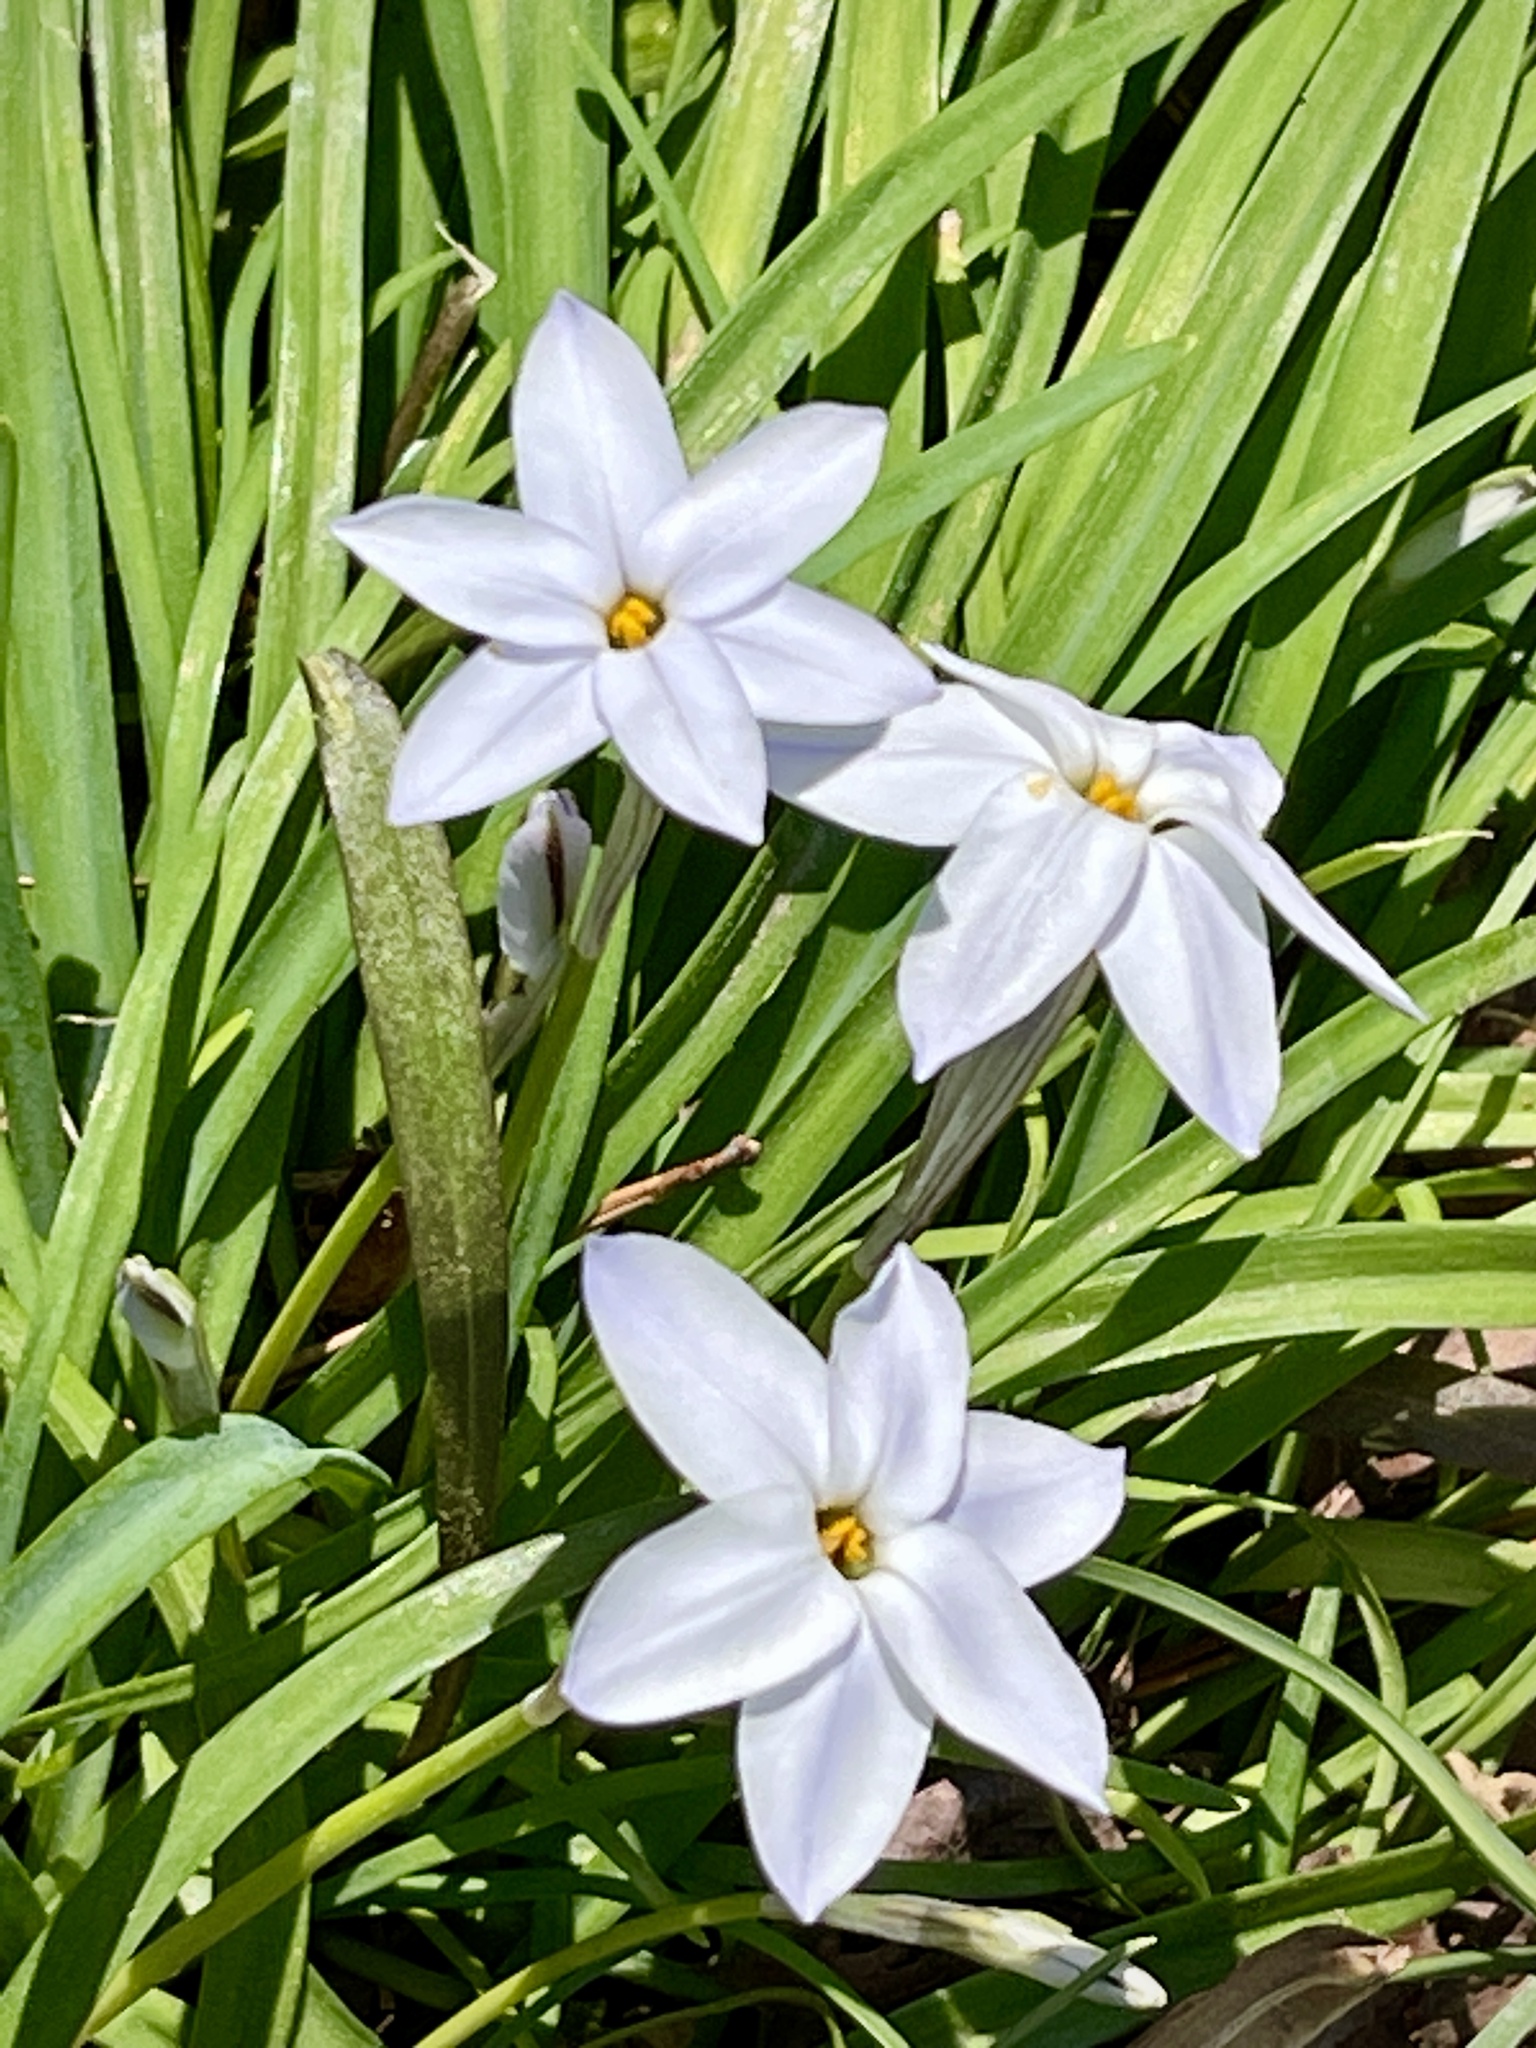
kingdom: Plantae
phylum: Tracheophyta
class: Liliopsida
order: Asparagales
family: Amaryllidaceae
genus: Ipheion
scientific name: Ipheion uniflorum
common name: Spring starflower
